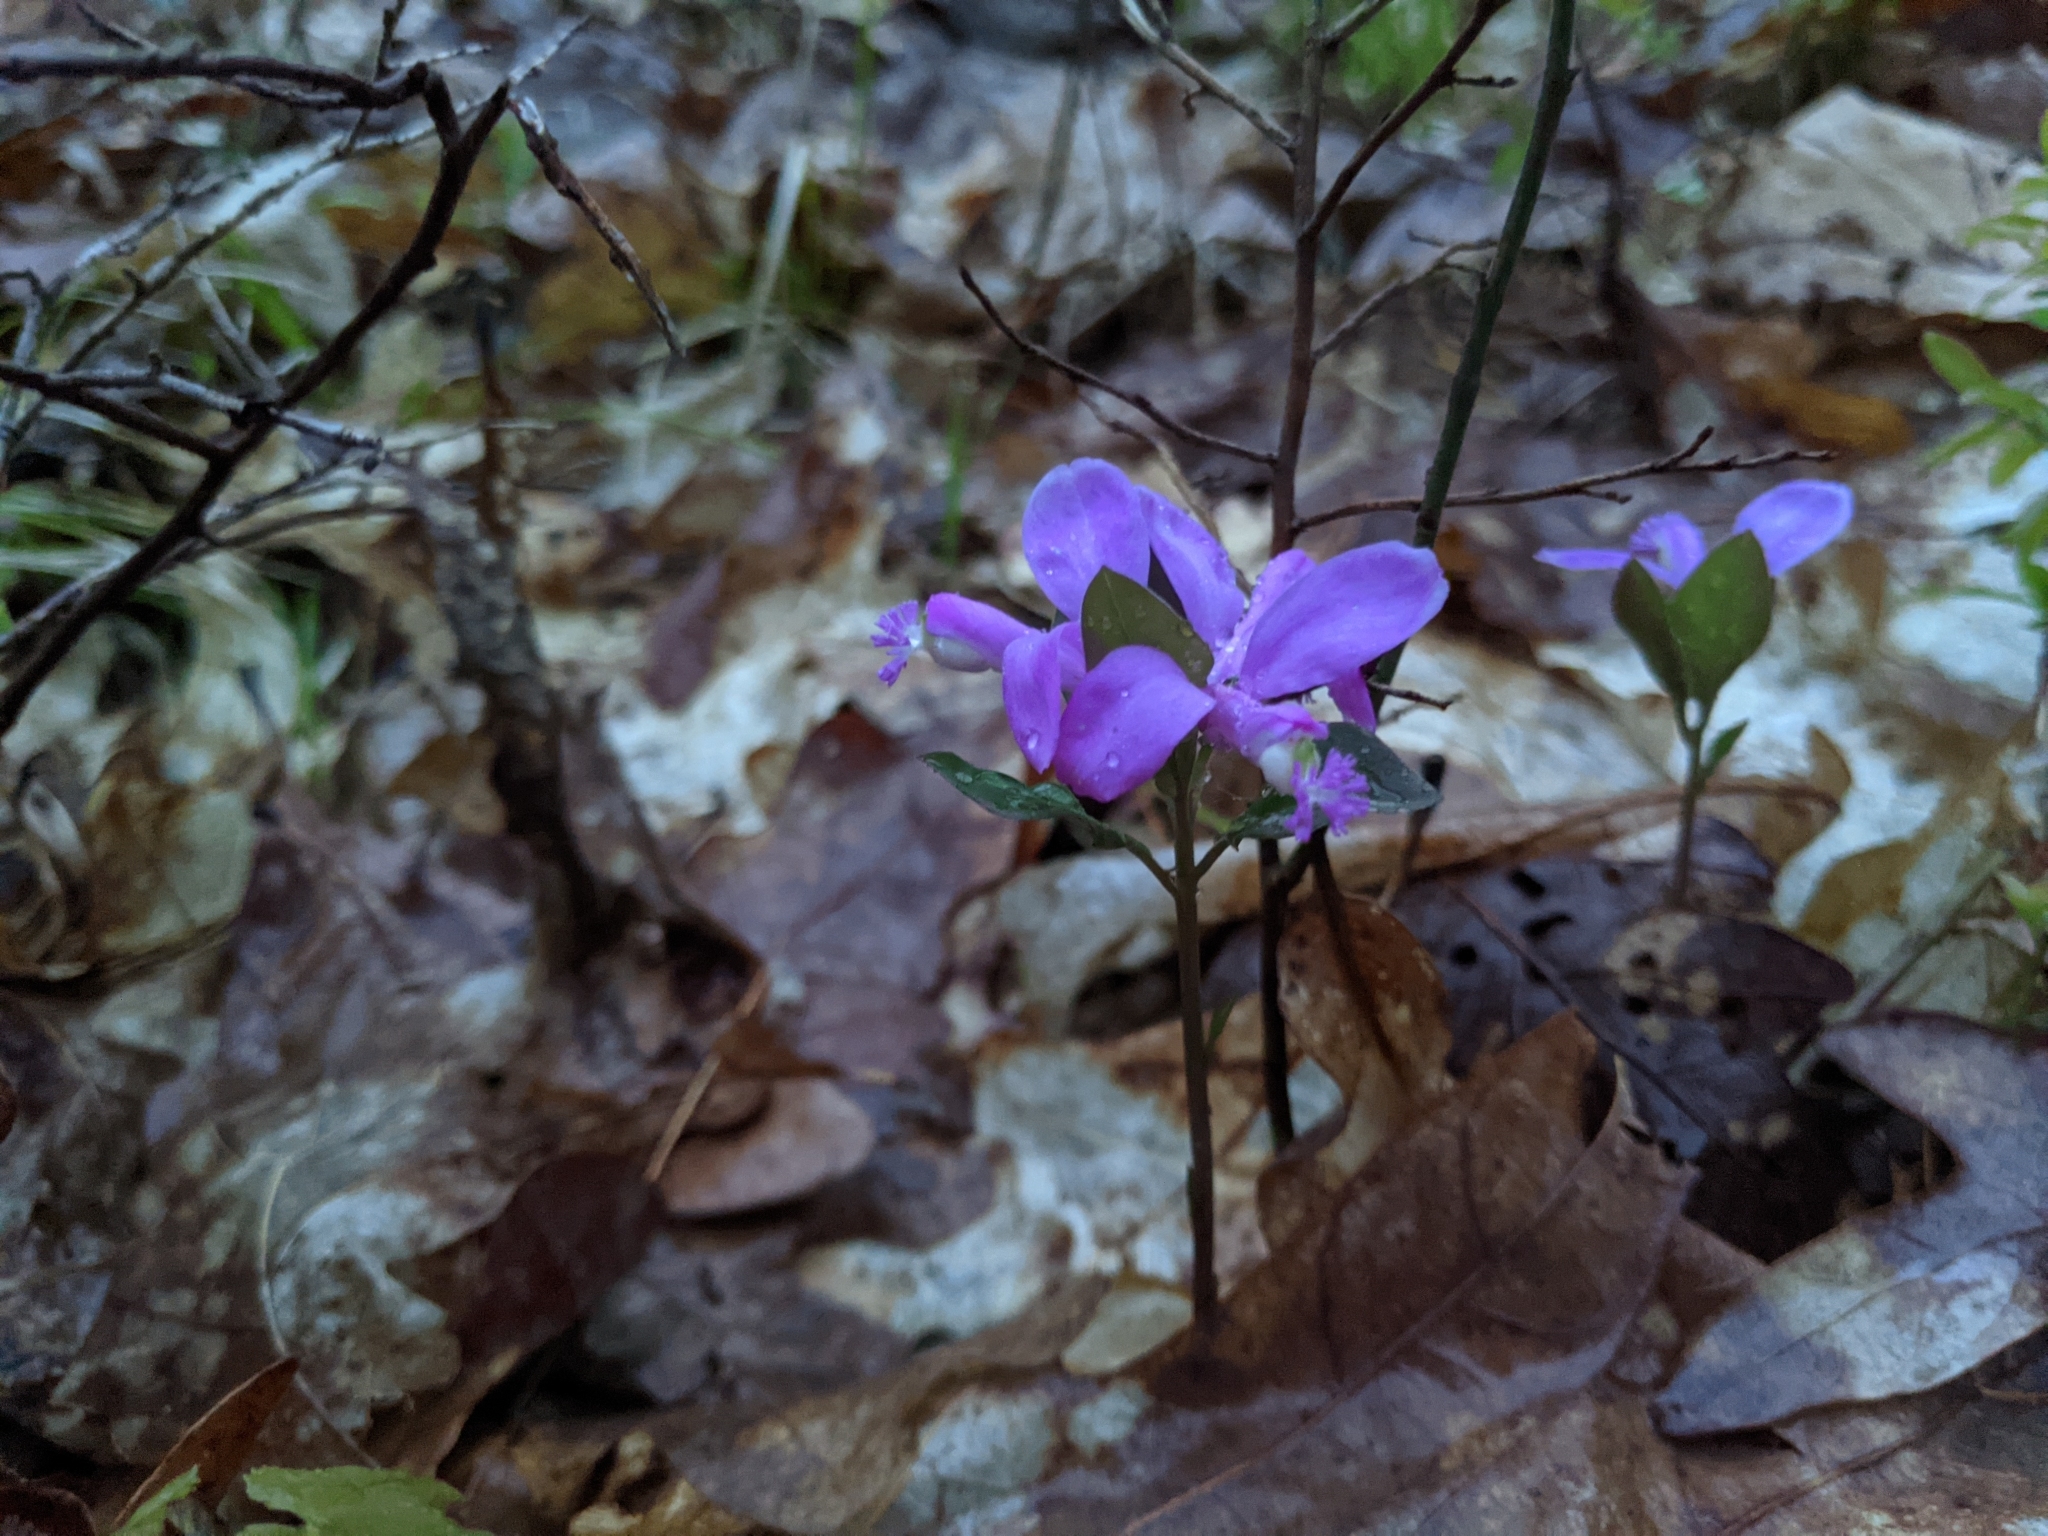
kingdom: Plantae
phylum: Tracheophyta
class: Magnoliopsida
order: Fabales
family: Polygalaceae
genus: Polygaloides
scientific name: Polygaloides paucifolia
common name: Bird-on-the-wing
